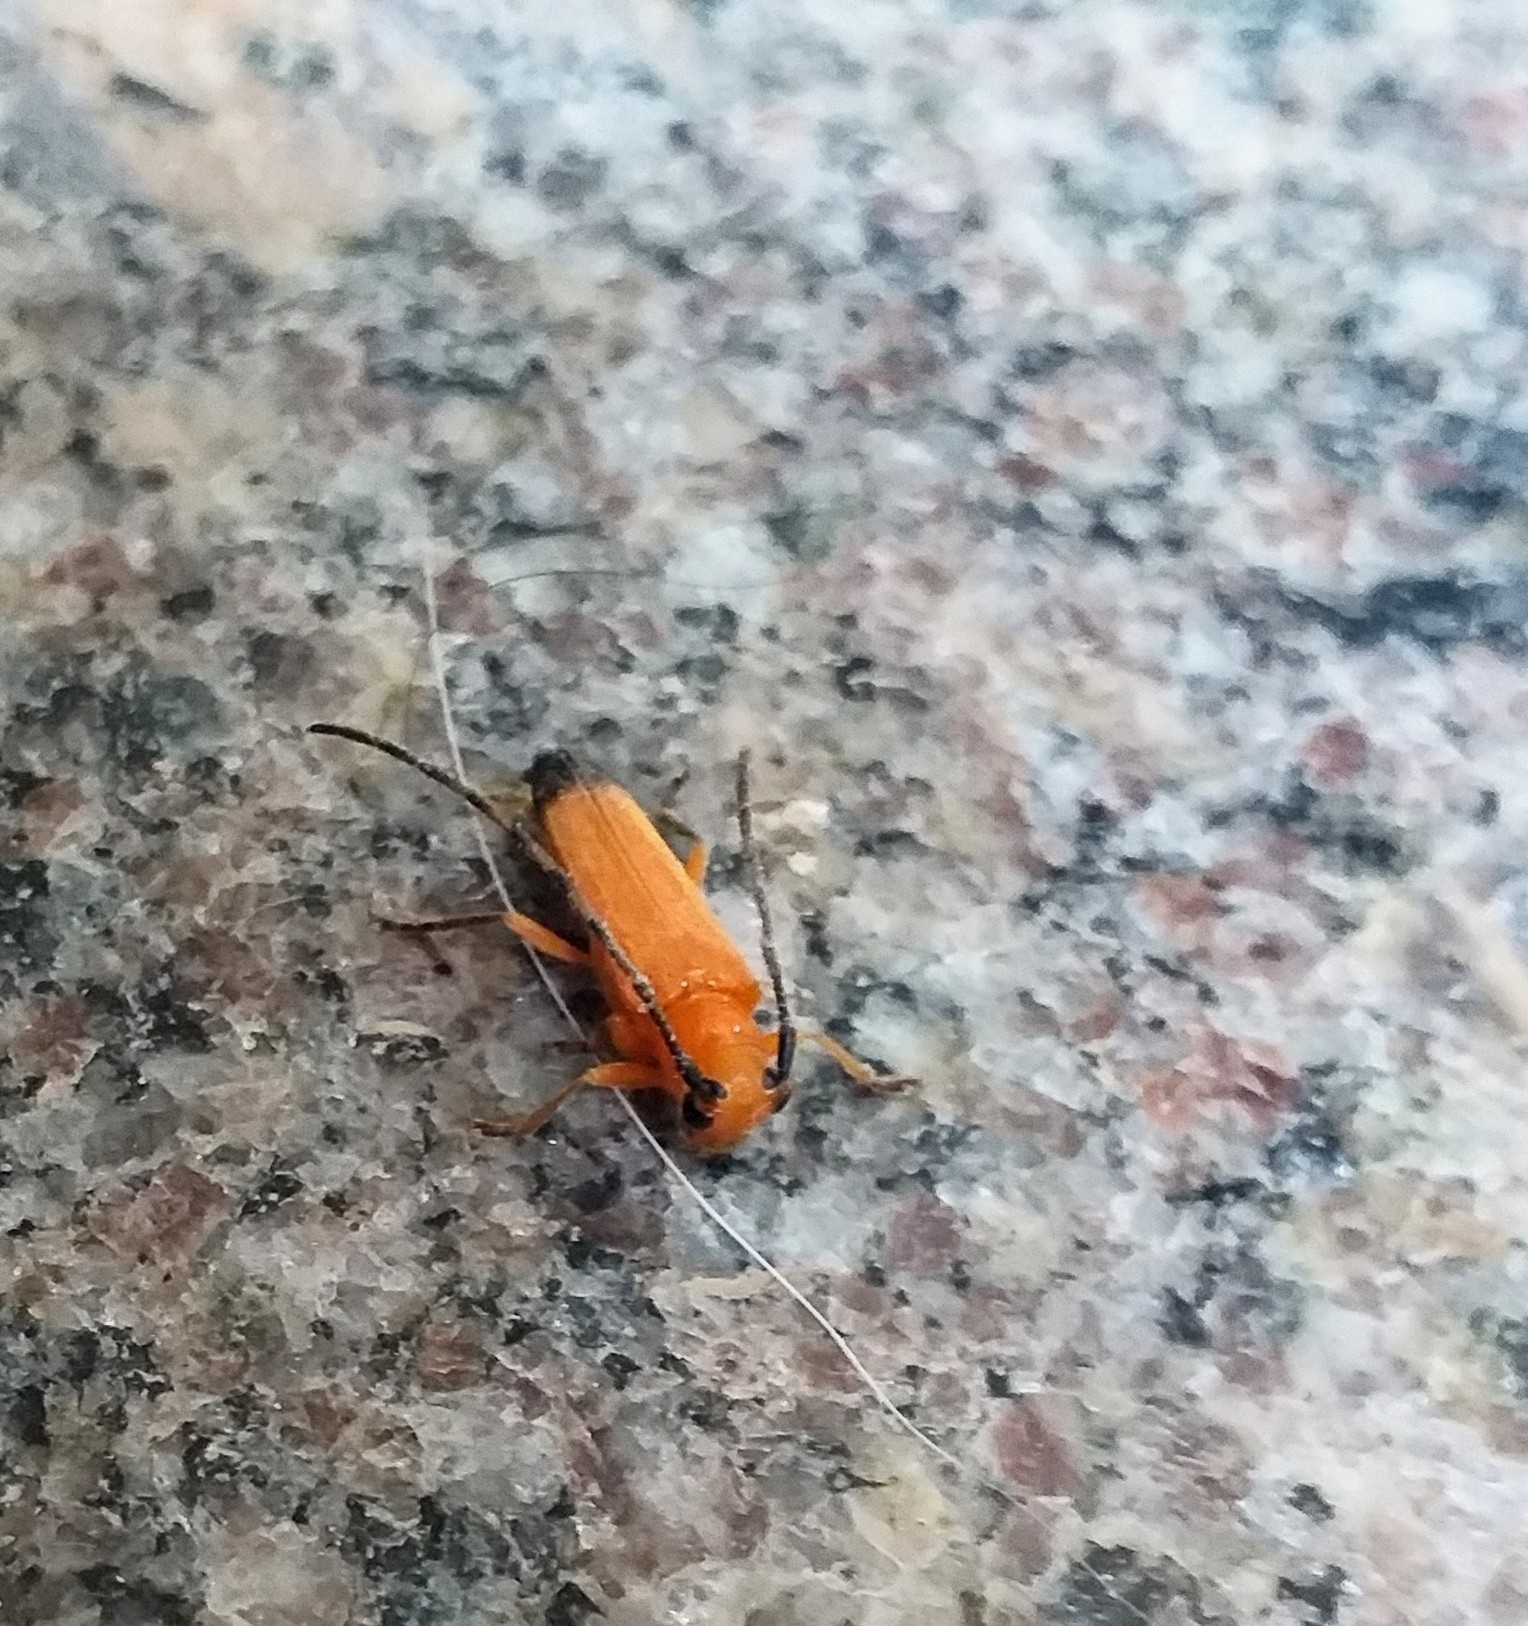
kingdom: Animalia
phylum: Arthropoda
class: Insecta
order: Coleoptera
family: Cerambycidae
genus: Nupserha
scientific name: Nupserha lenita
